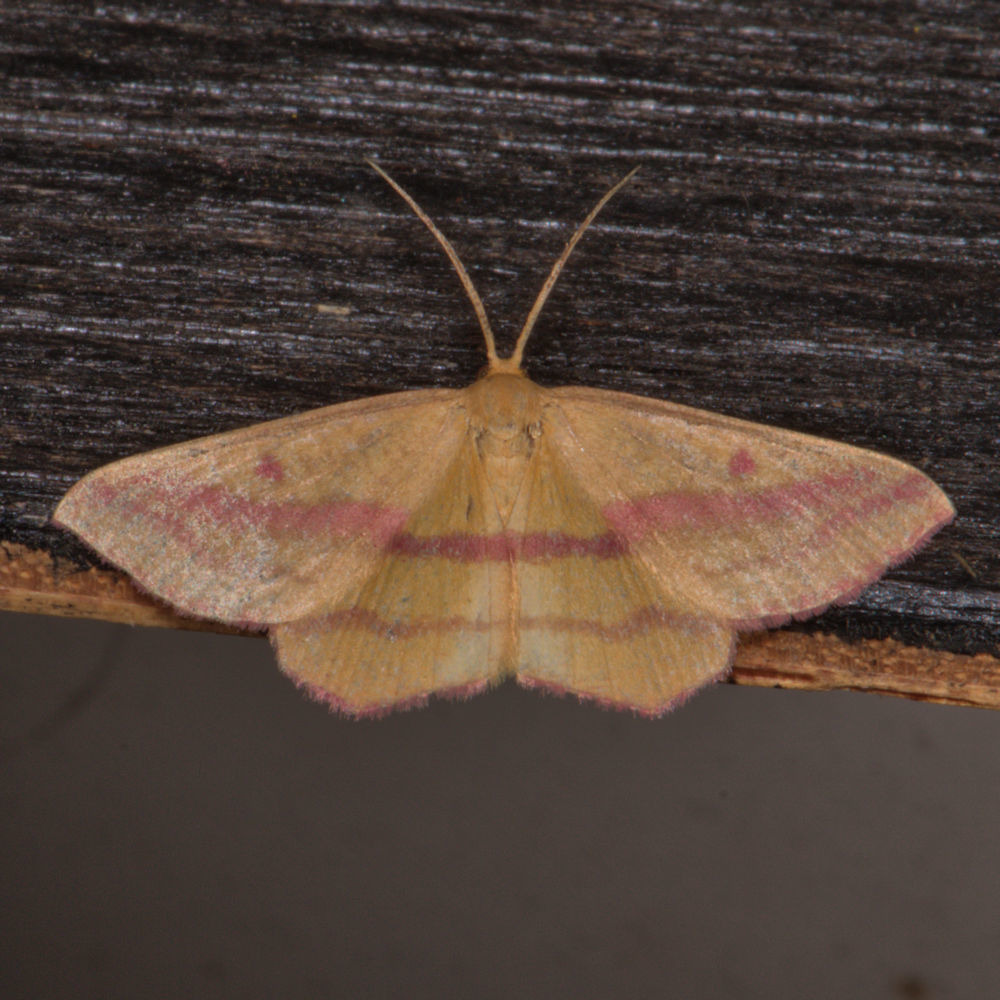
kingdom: Animalia
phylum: Arthropoda
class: Insecta
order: Lepidoptera
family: Geometridae
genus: Haematopis
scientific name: Haematopis grataria
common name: Chickweed geometer
